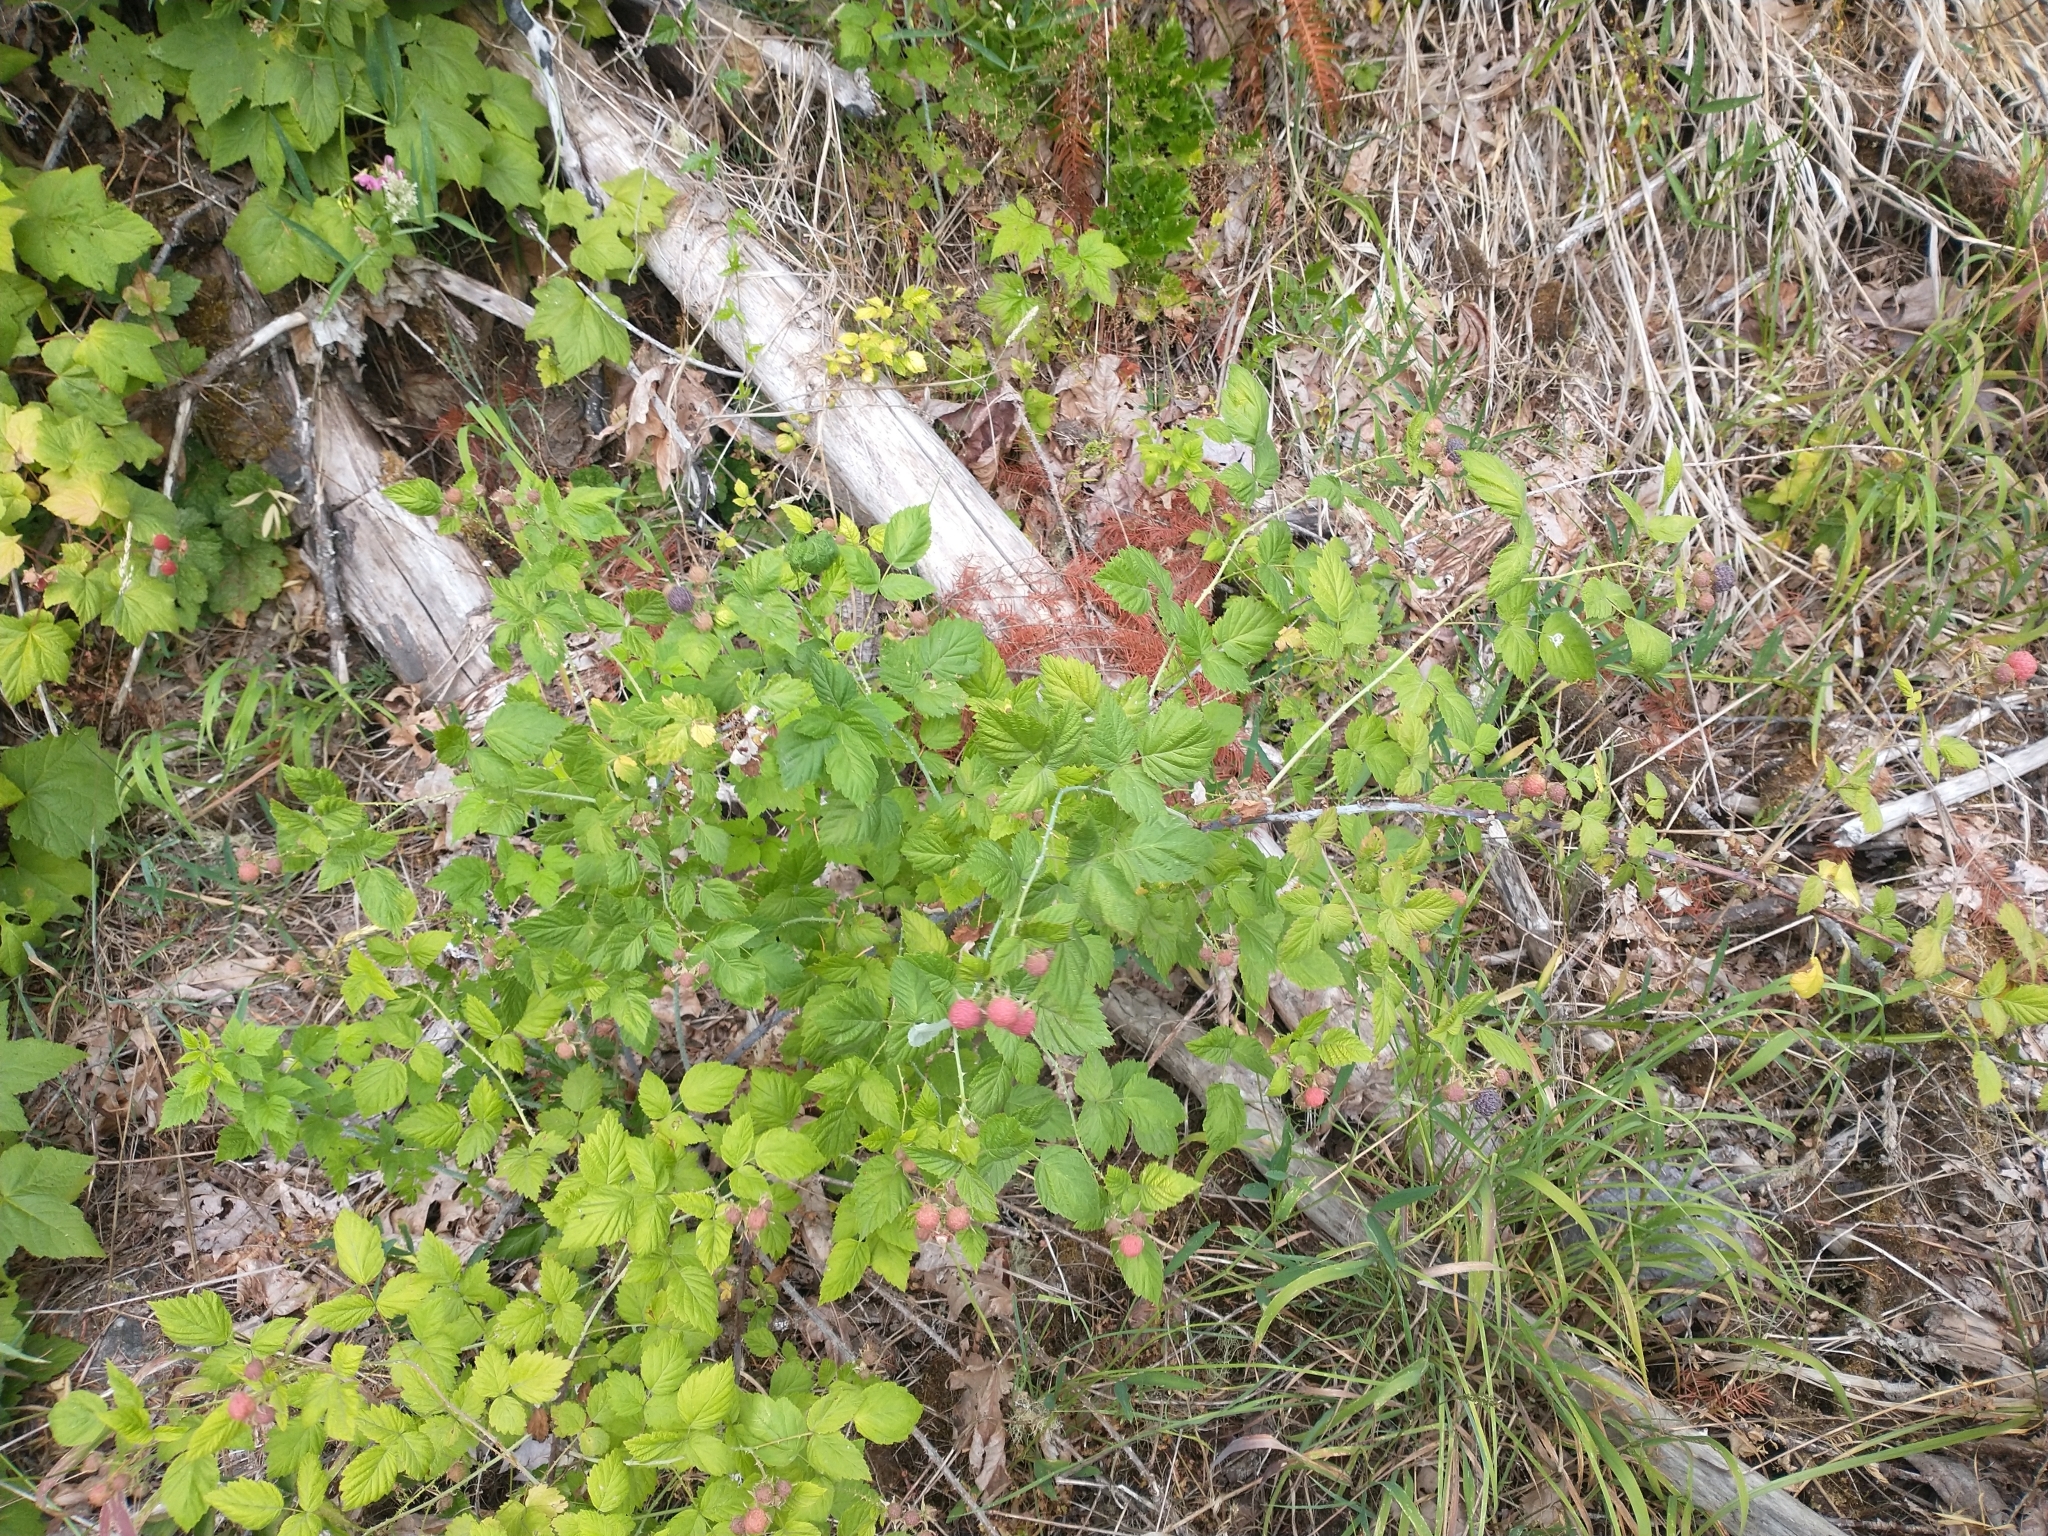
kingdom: Plantae
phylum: Tracheophyta
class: Magnoliopsida
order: Rosales
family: Rosaceae
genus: Rubus
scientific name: Rubus leucodermis
